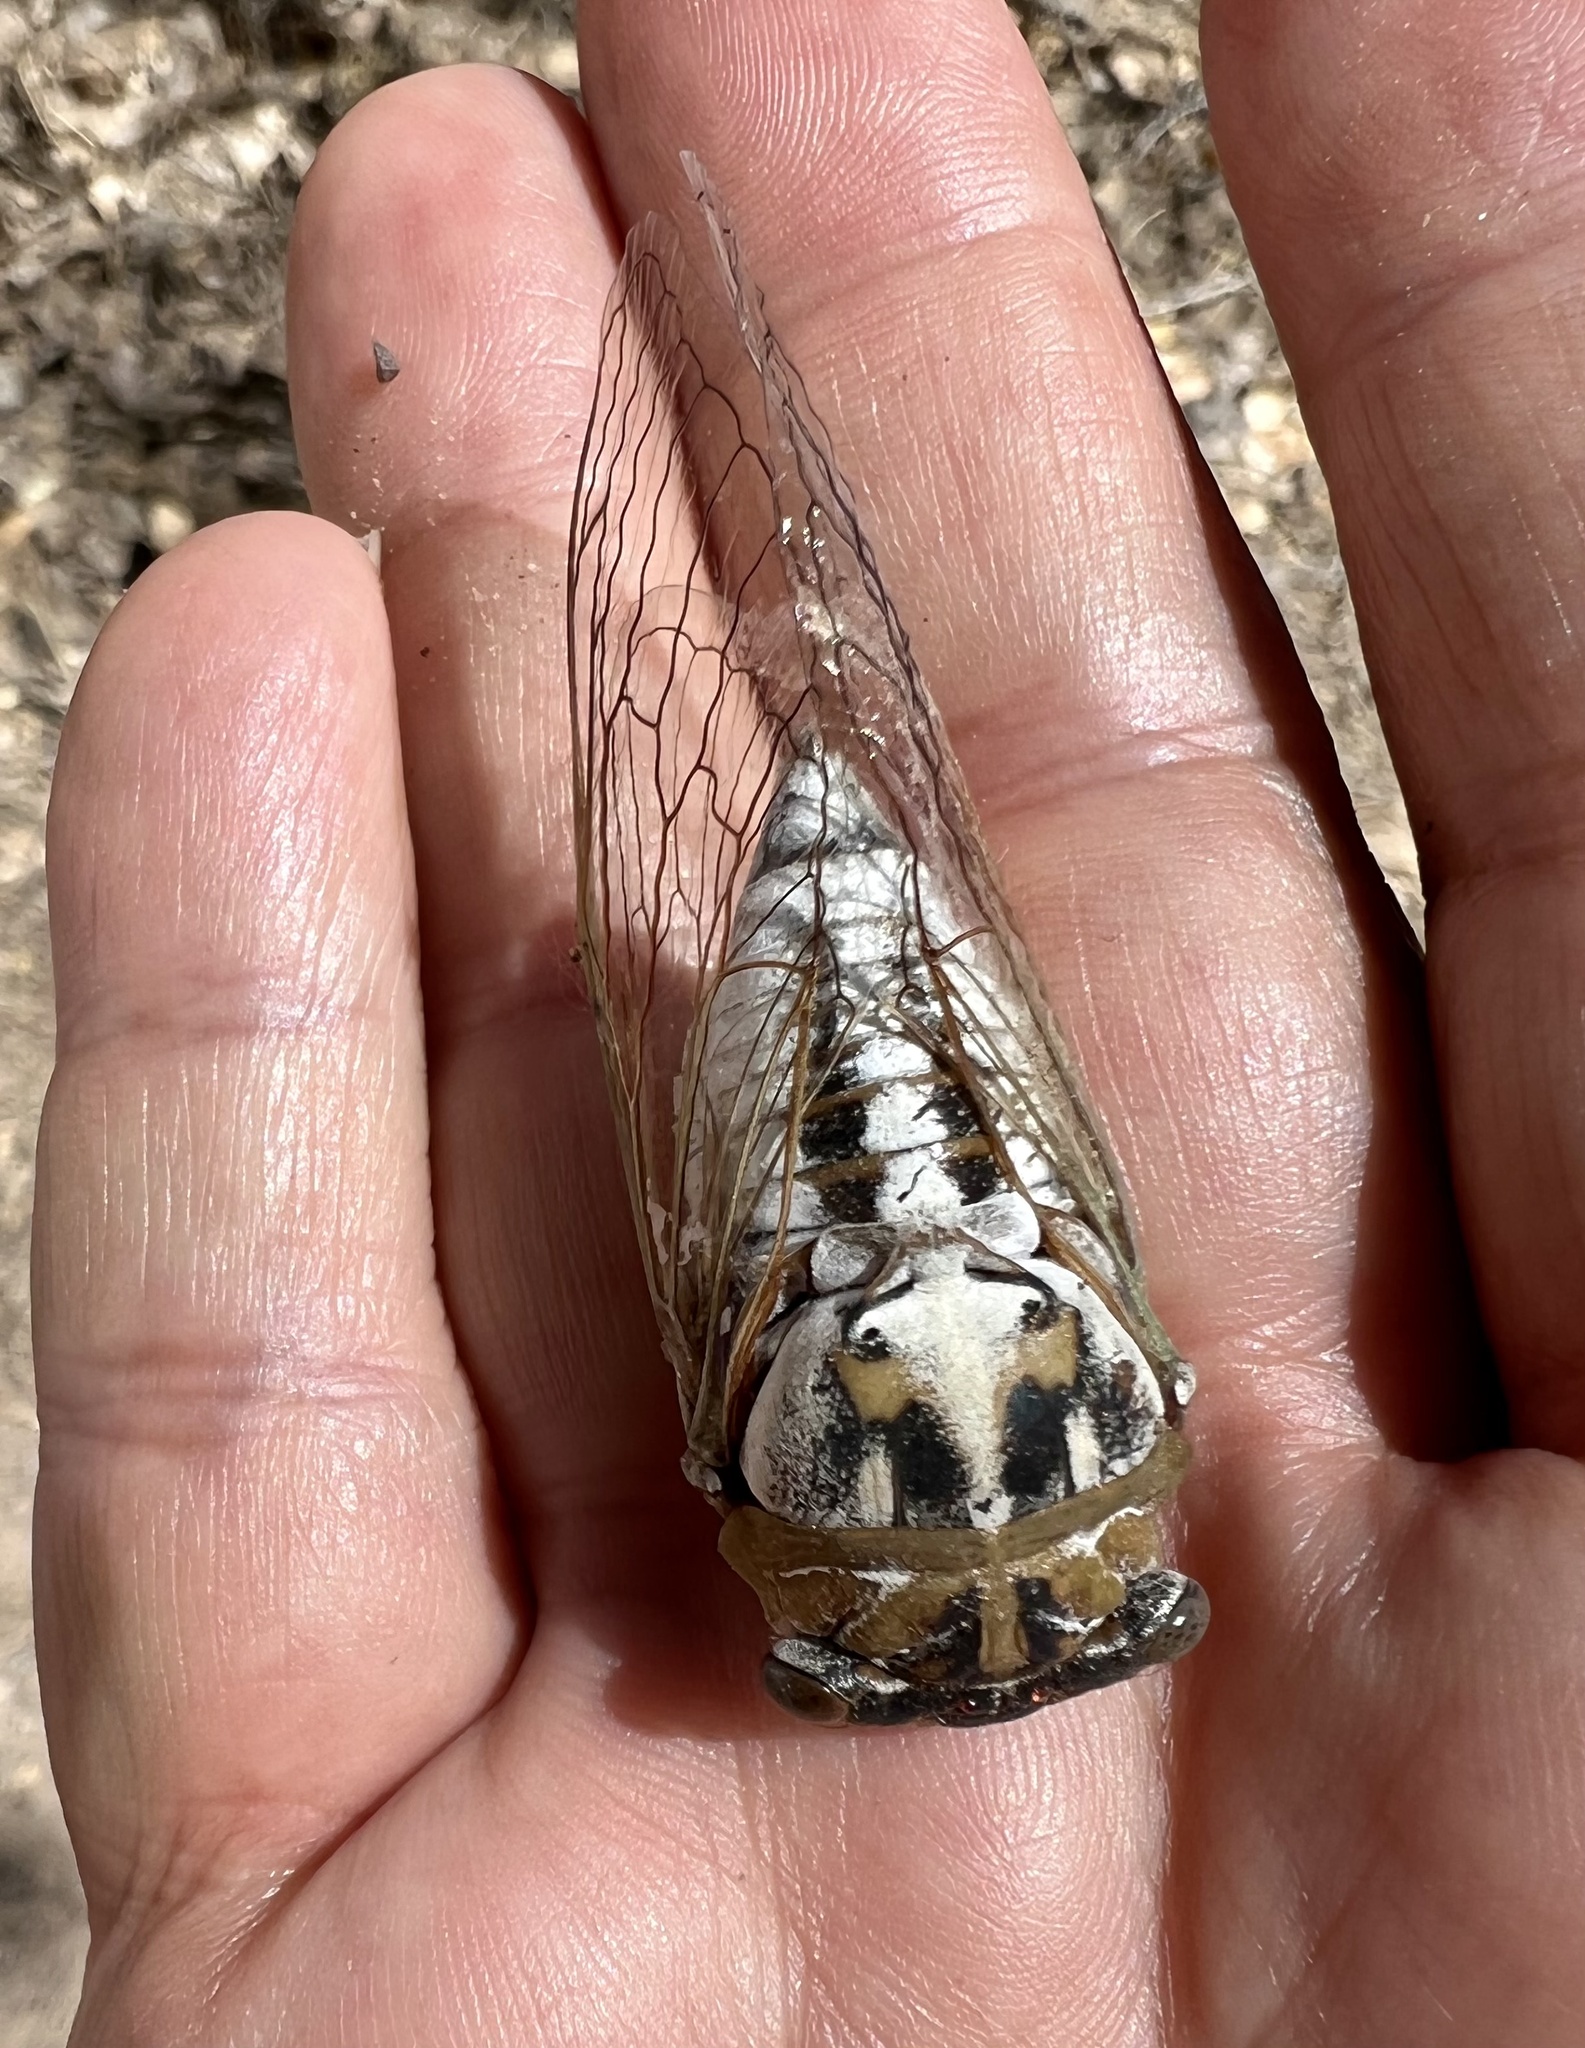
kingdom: Animalia
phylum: Arthropoda
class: Insecta
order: Hemiptera
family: Cicadidae
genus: Megatibicen
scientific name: Megatibicen dealbatus
